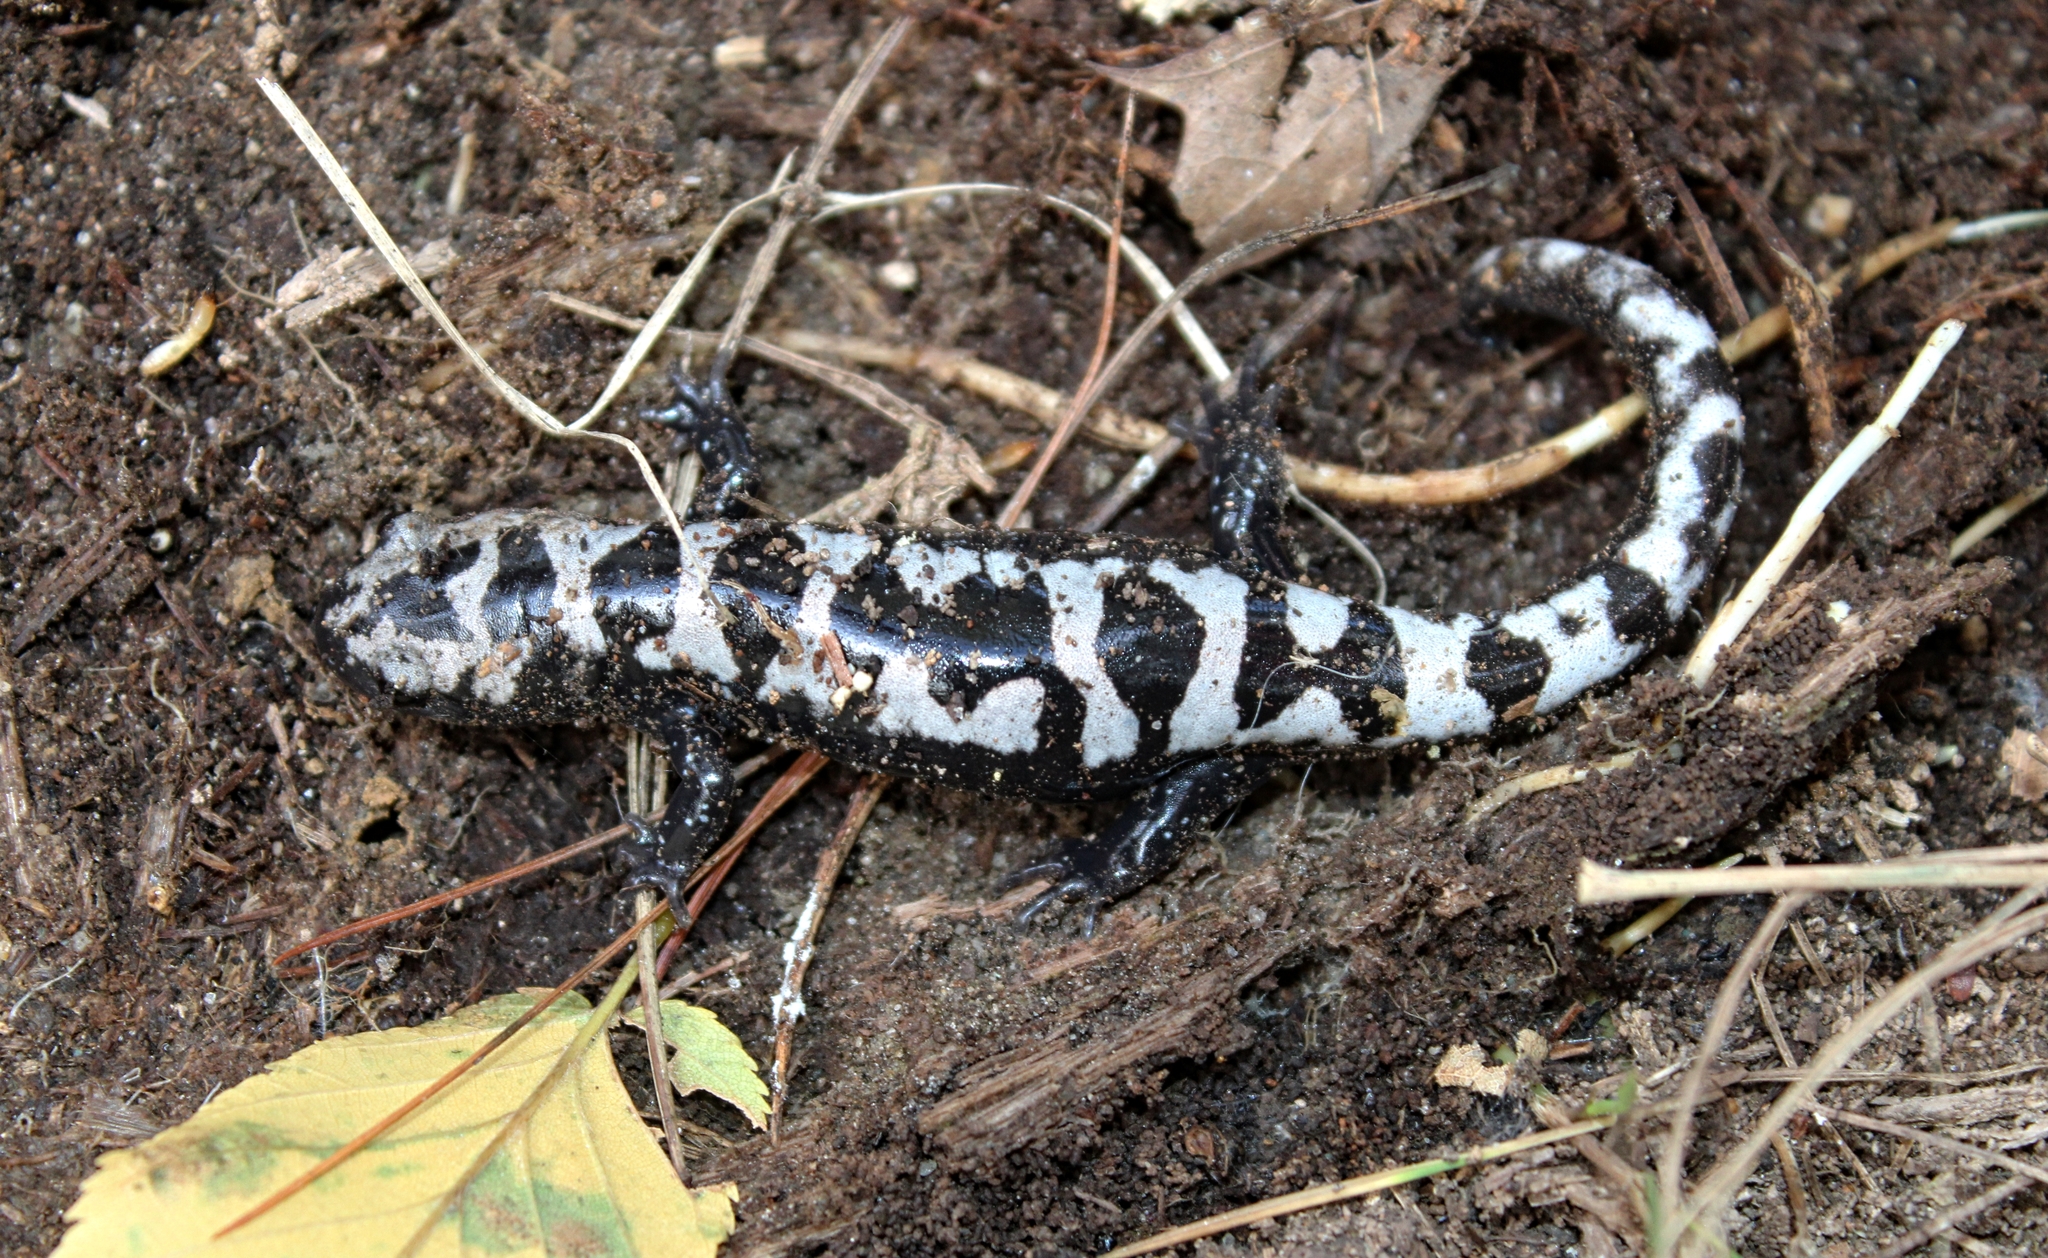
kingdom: Animalia
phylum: Chordata
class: Amphibia
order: Caudata
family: Ambystomatidae
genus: Ambystoma
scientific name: Ambystoma opacum
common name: Marbled salamander
